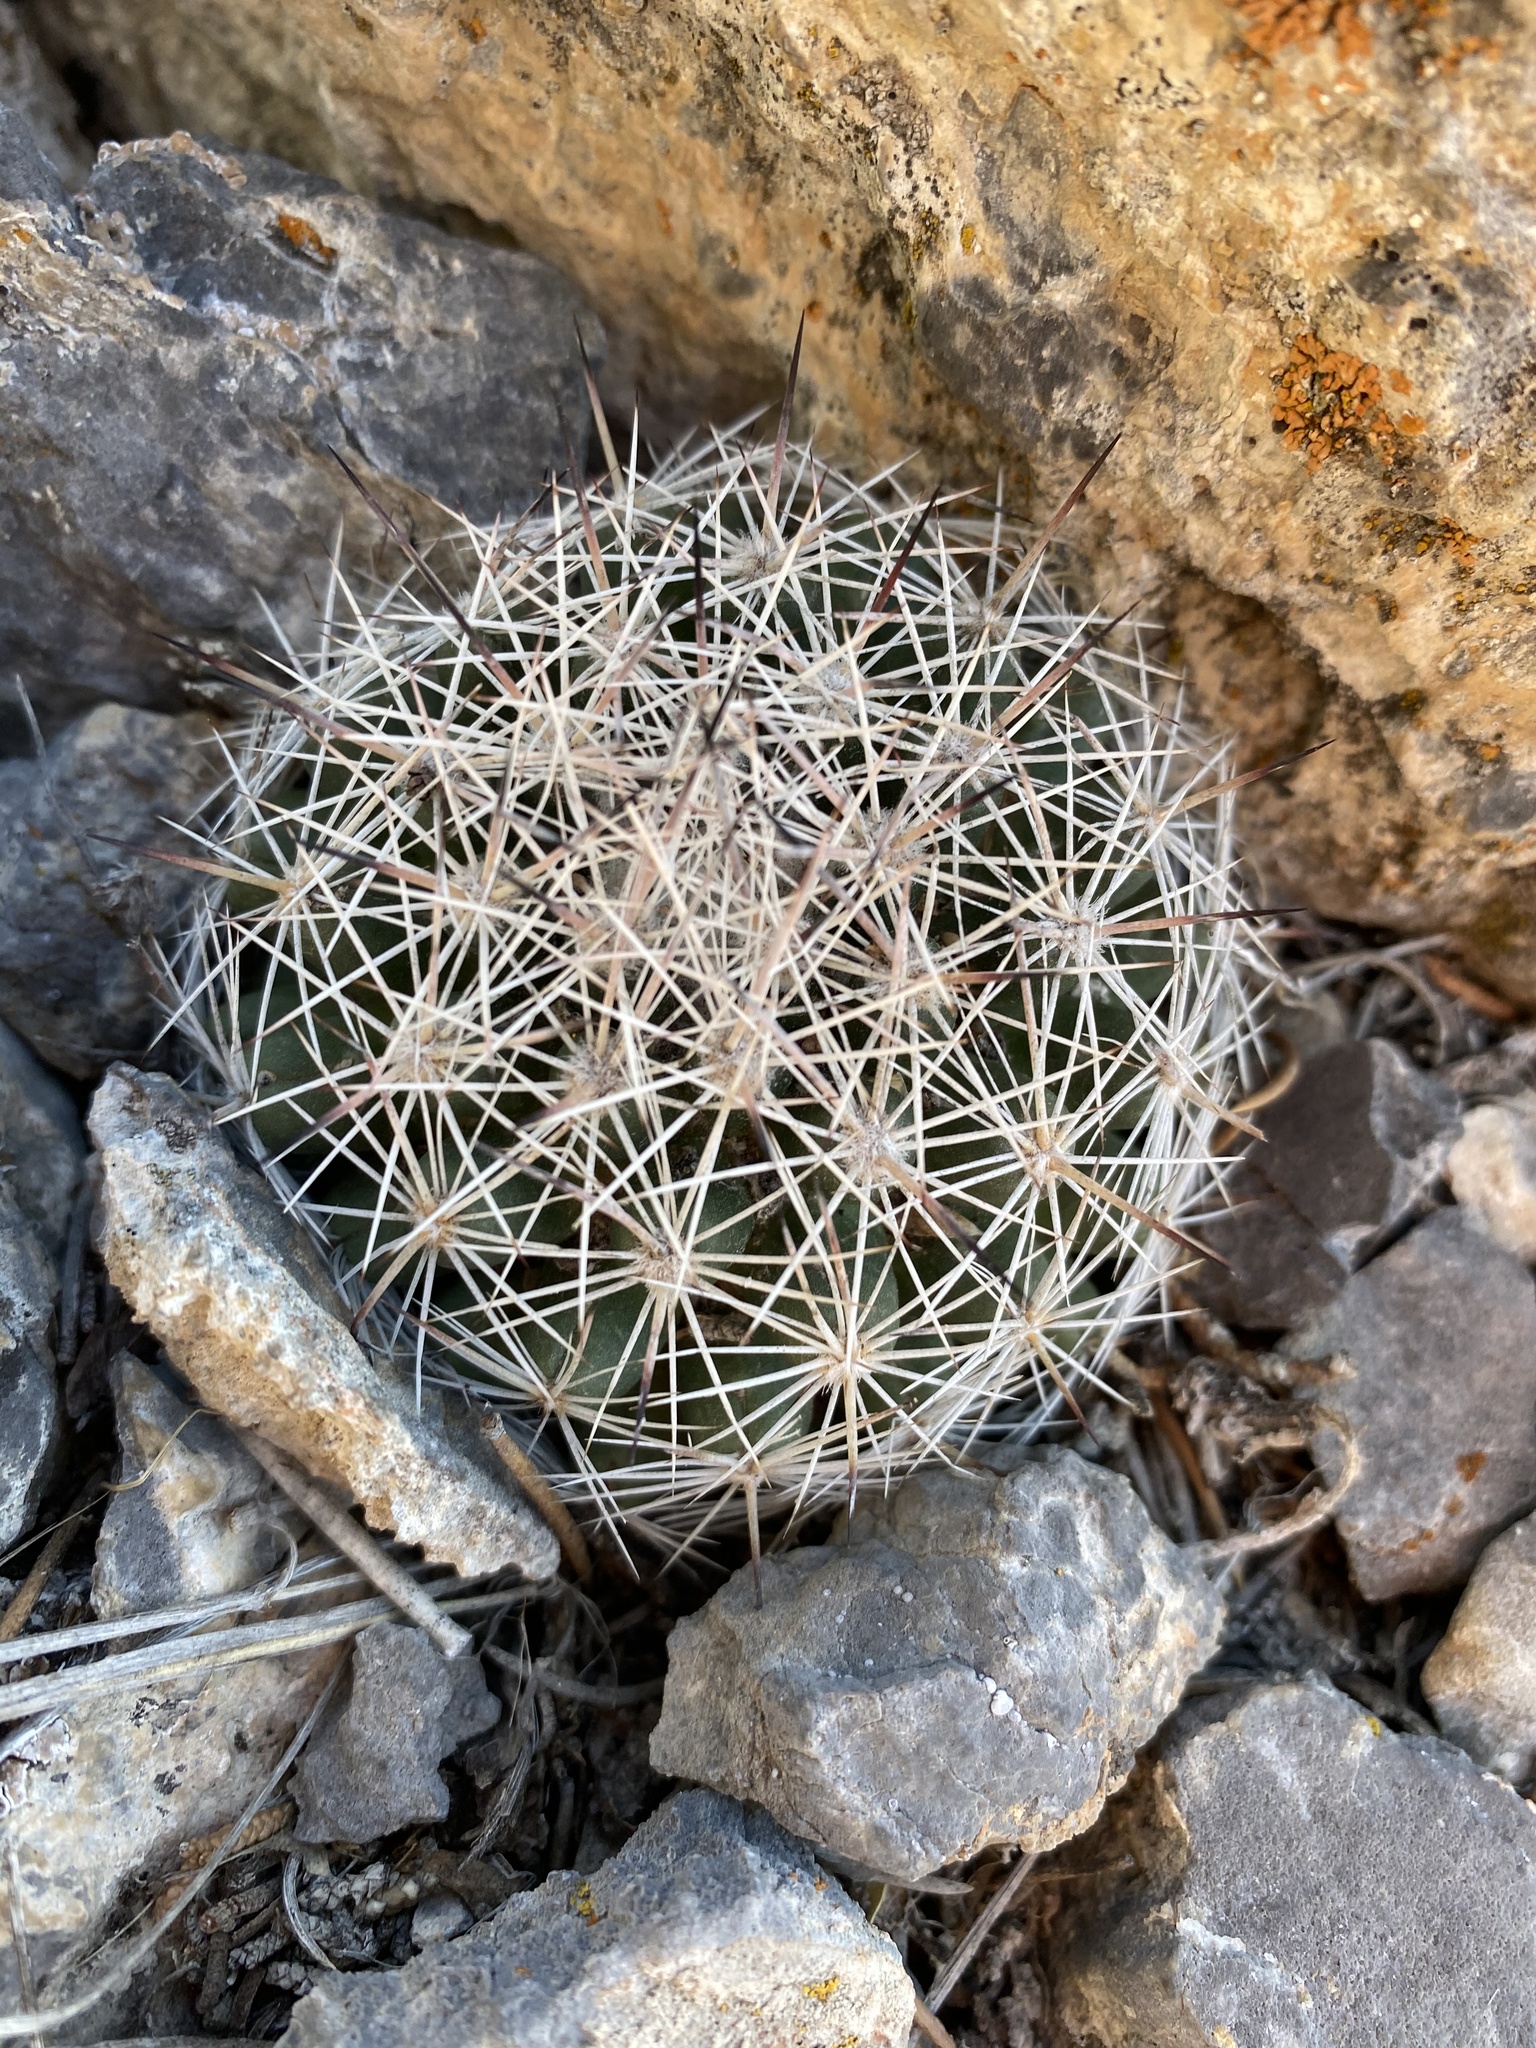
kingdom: Plantae
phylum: Tracheophyta
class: Magnoliopsida
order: Caryophyllales
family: Cactaceae
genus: Pelecyphora
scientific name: Pelecyphora vivipara
